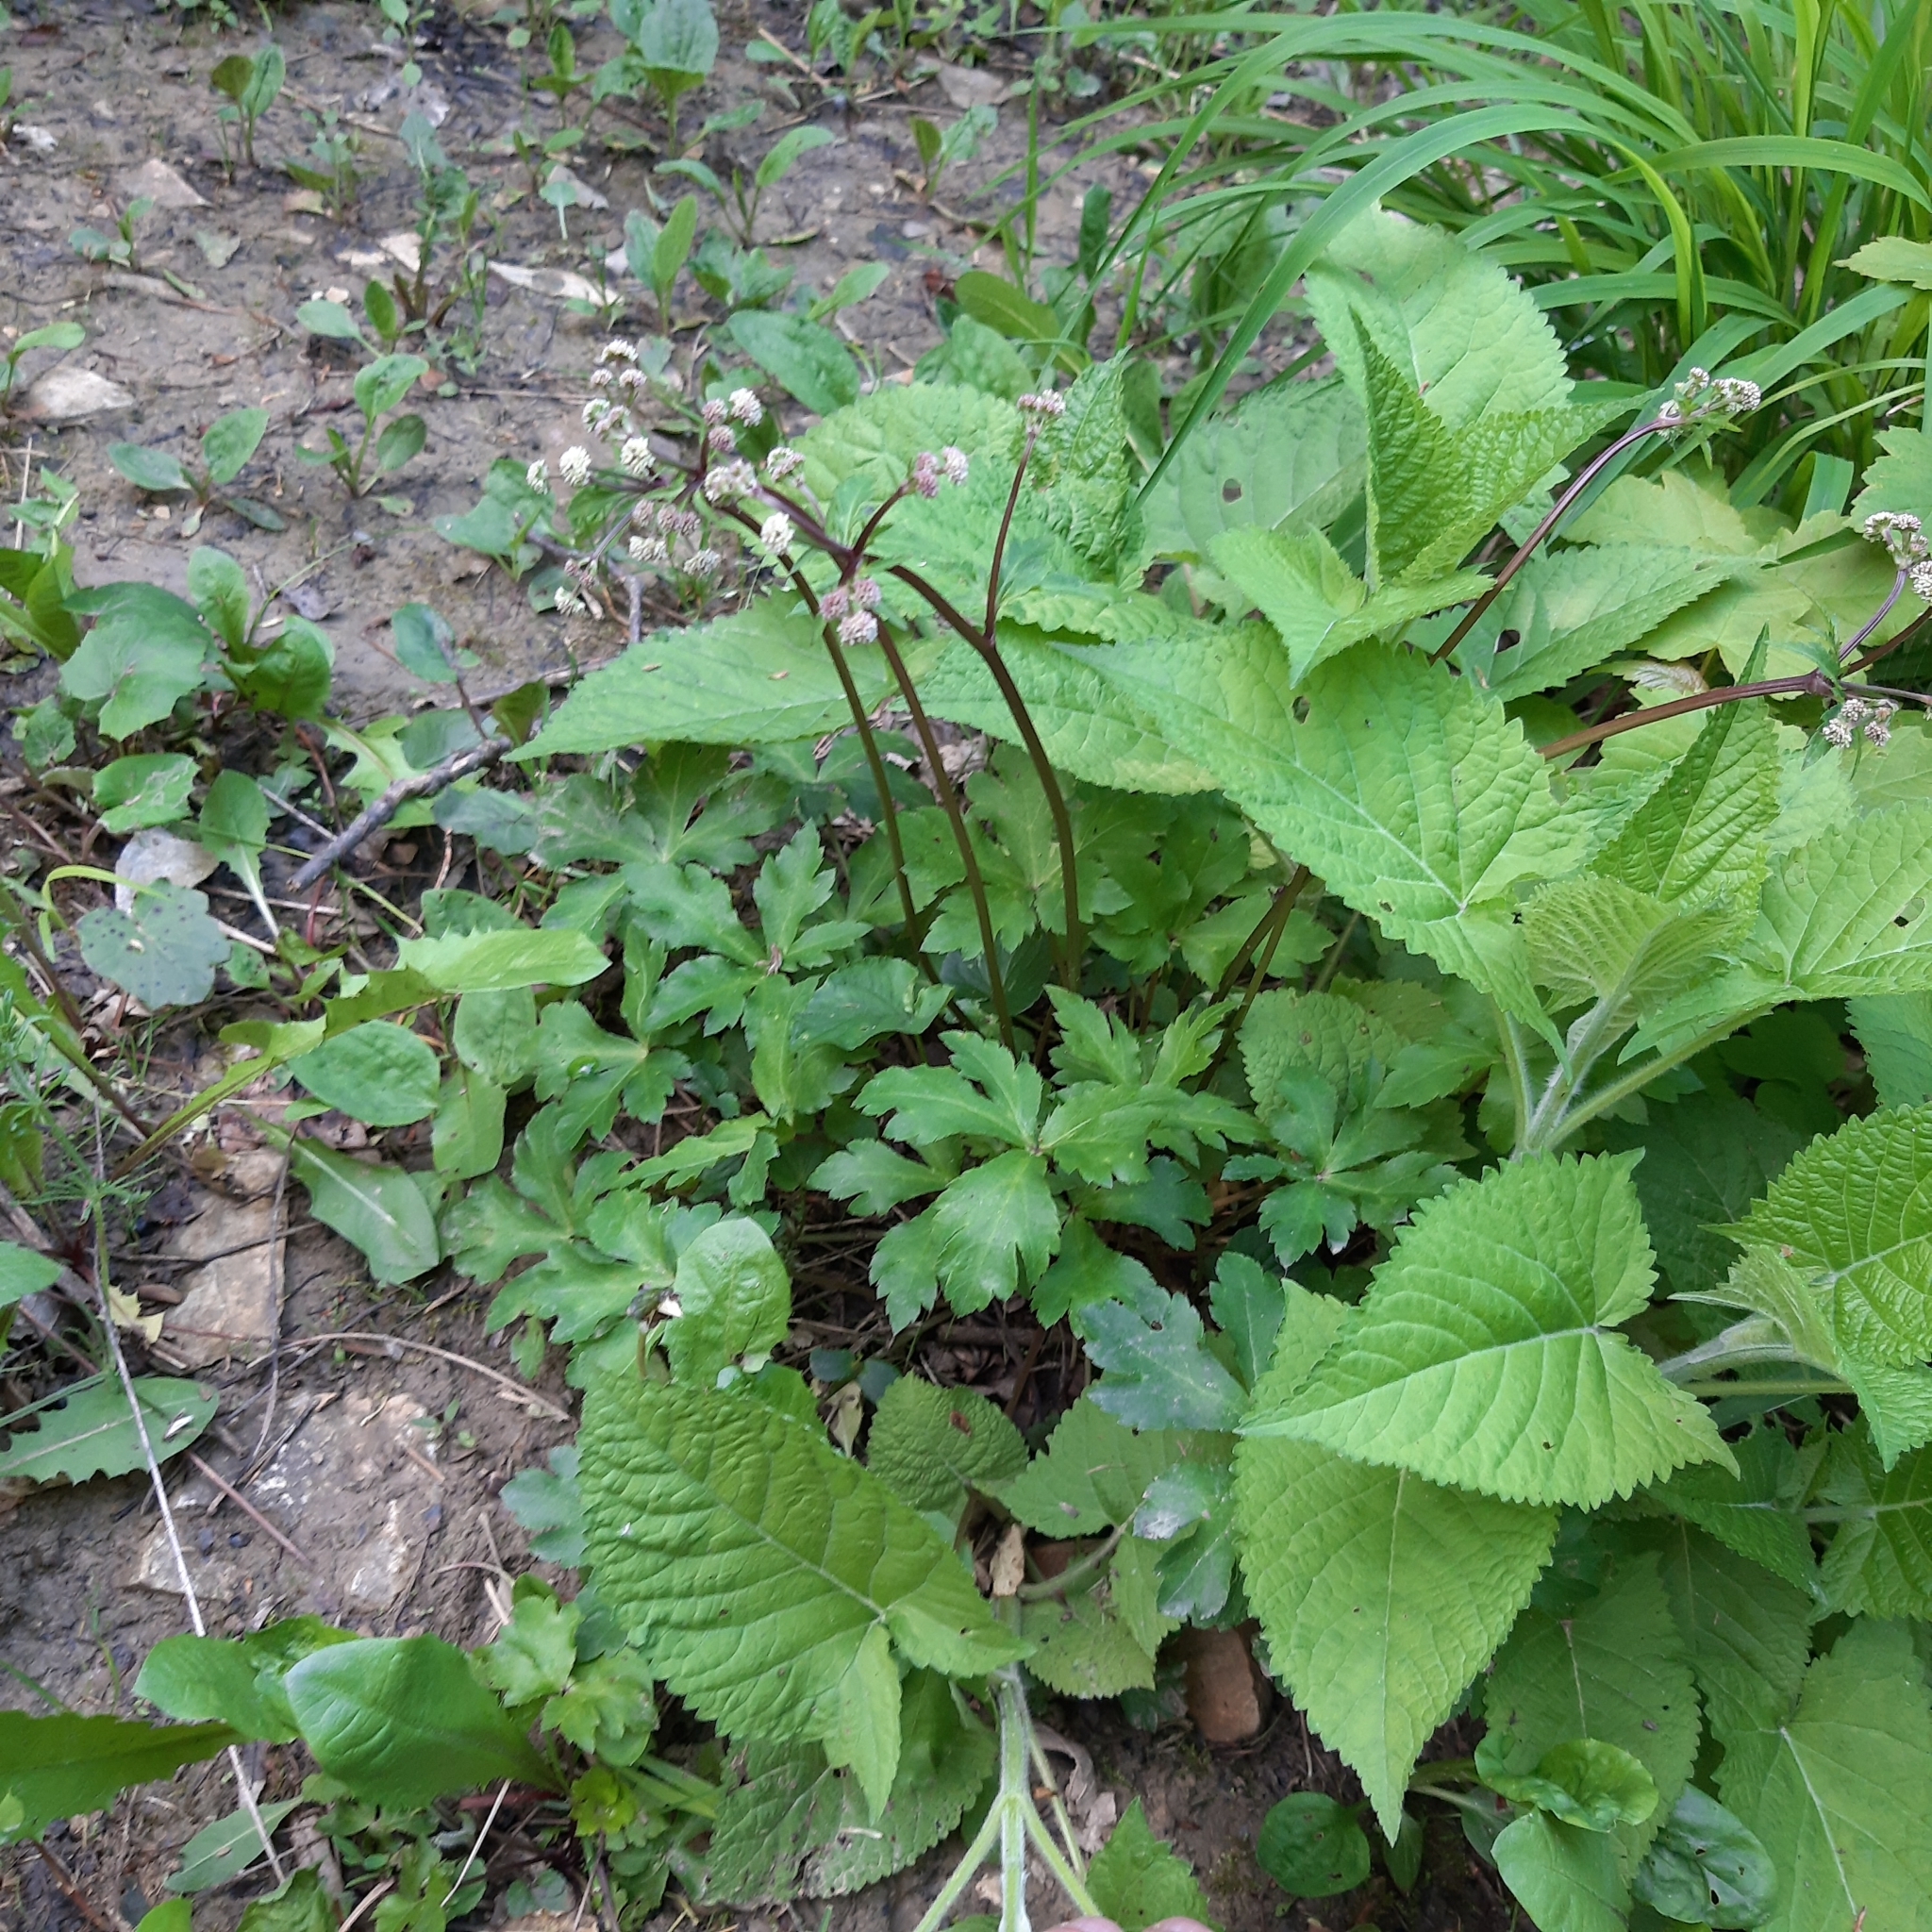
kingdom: Plantae
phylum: Tracheophyta
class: Magnoliopsida
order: Apiales
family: Apiaceae
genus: Sanicula
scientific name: Sanicula europaea
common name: Sanicle
